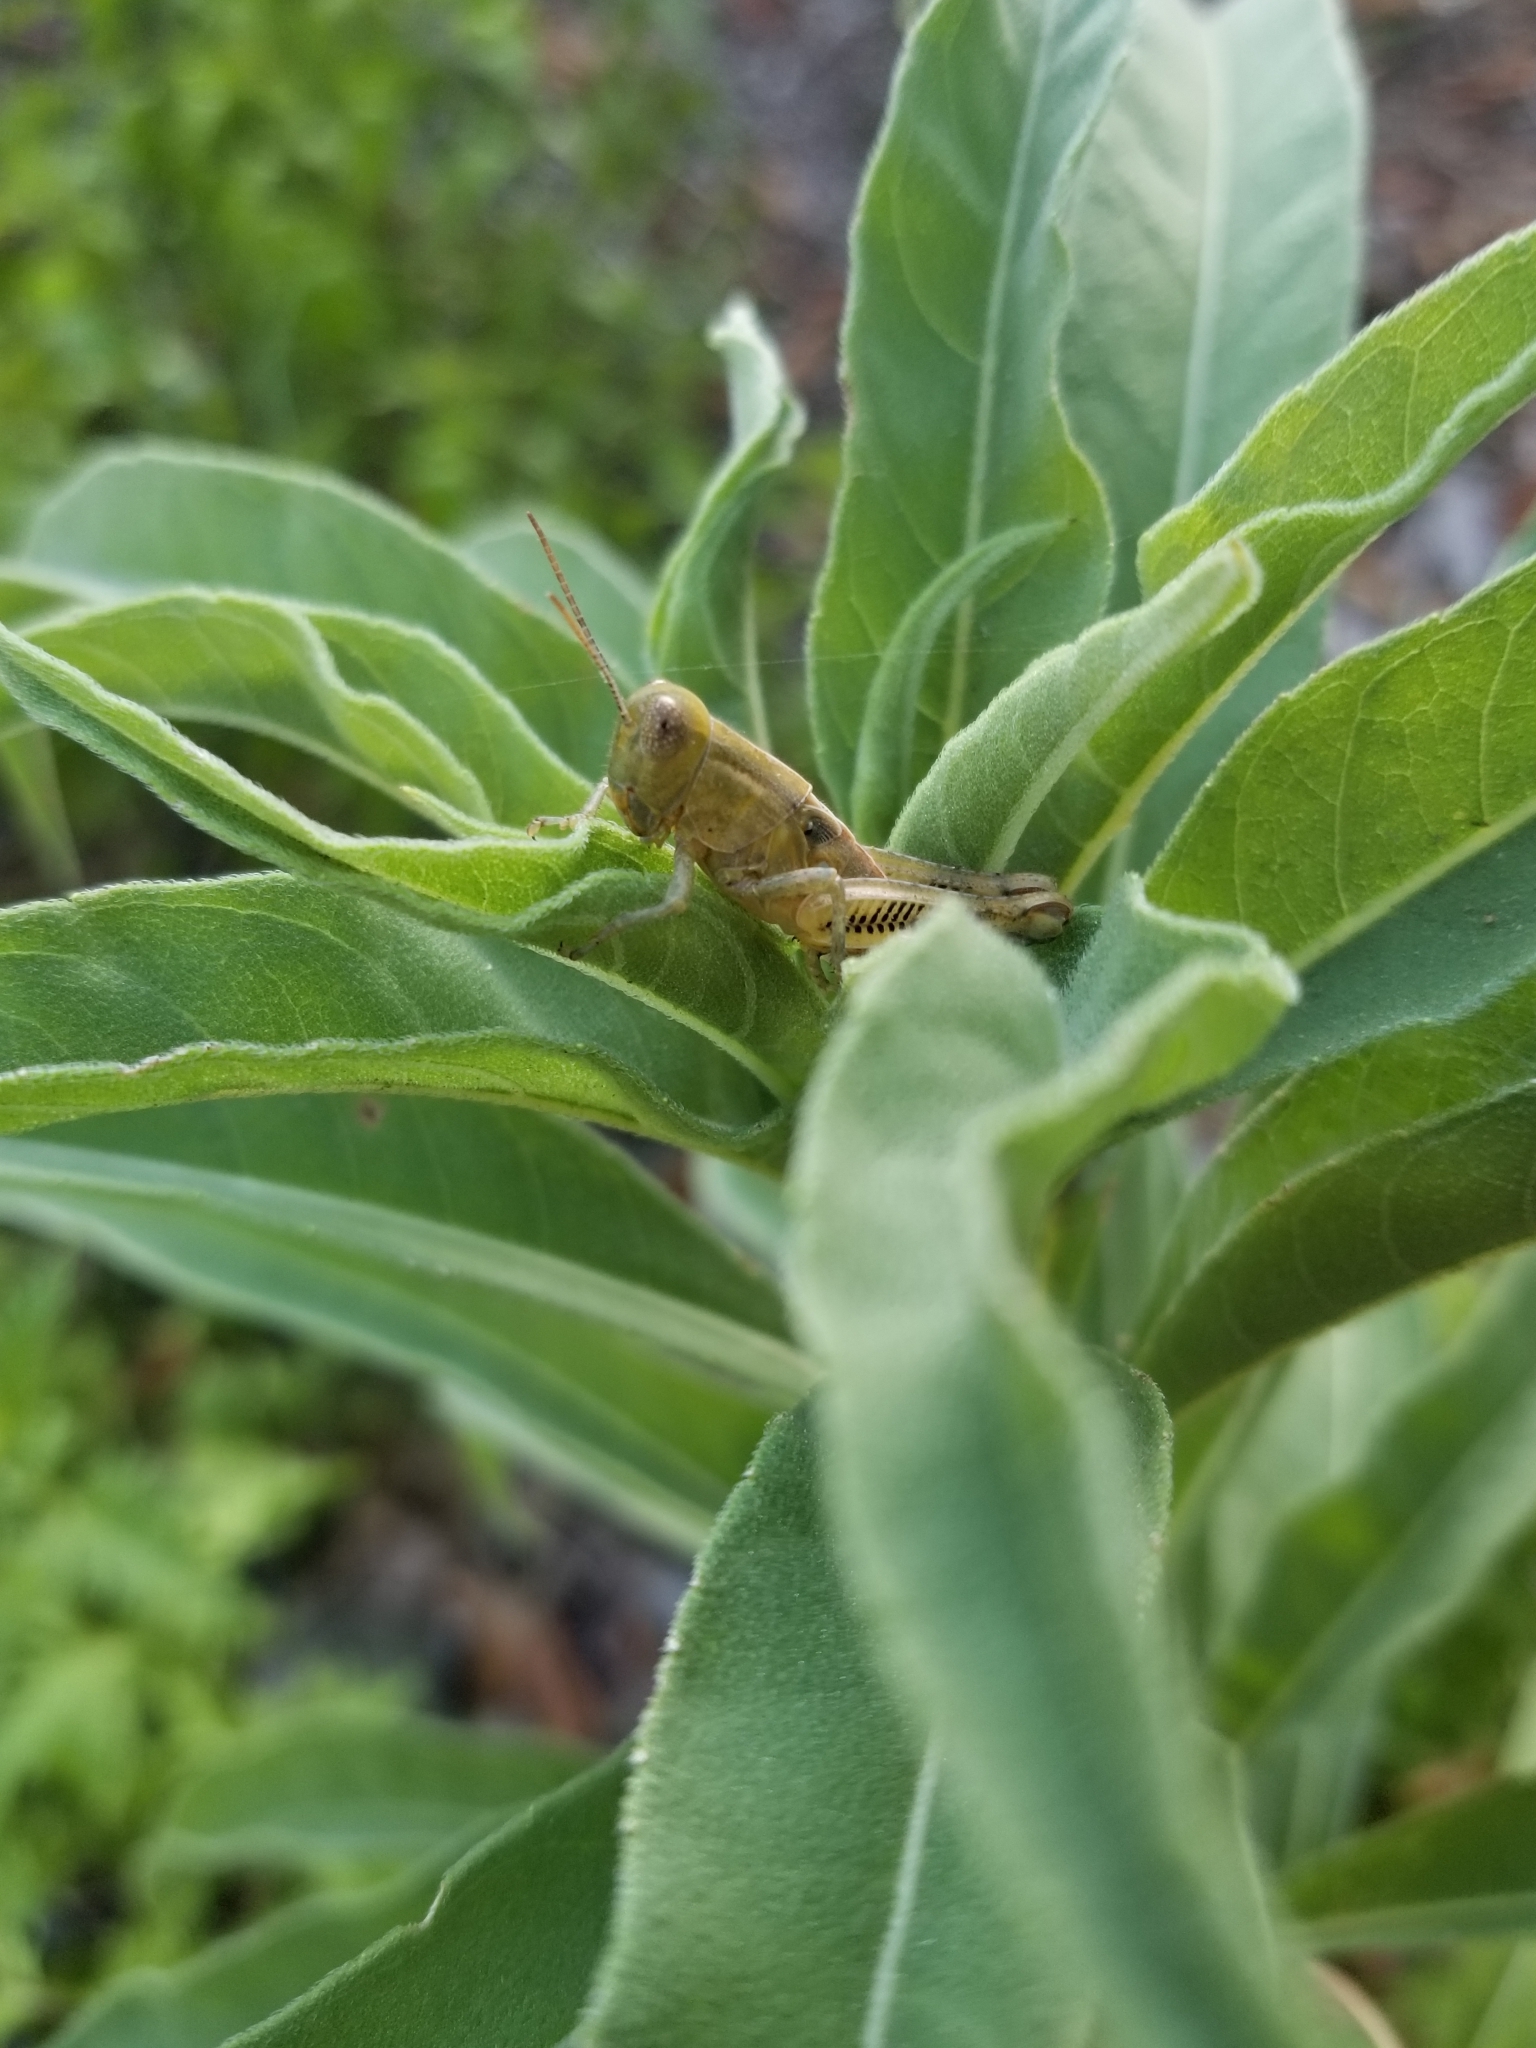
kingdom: Animalia
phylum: Arthropoda
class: Insecta
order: Orthoptera
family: Acrididae
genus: Melanoplus
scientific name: Melanoplus differentialis
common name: Differential grasshopper
